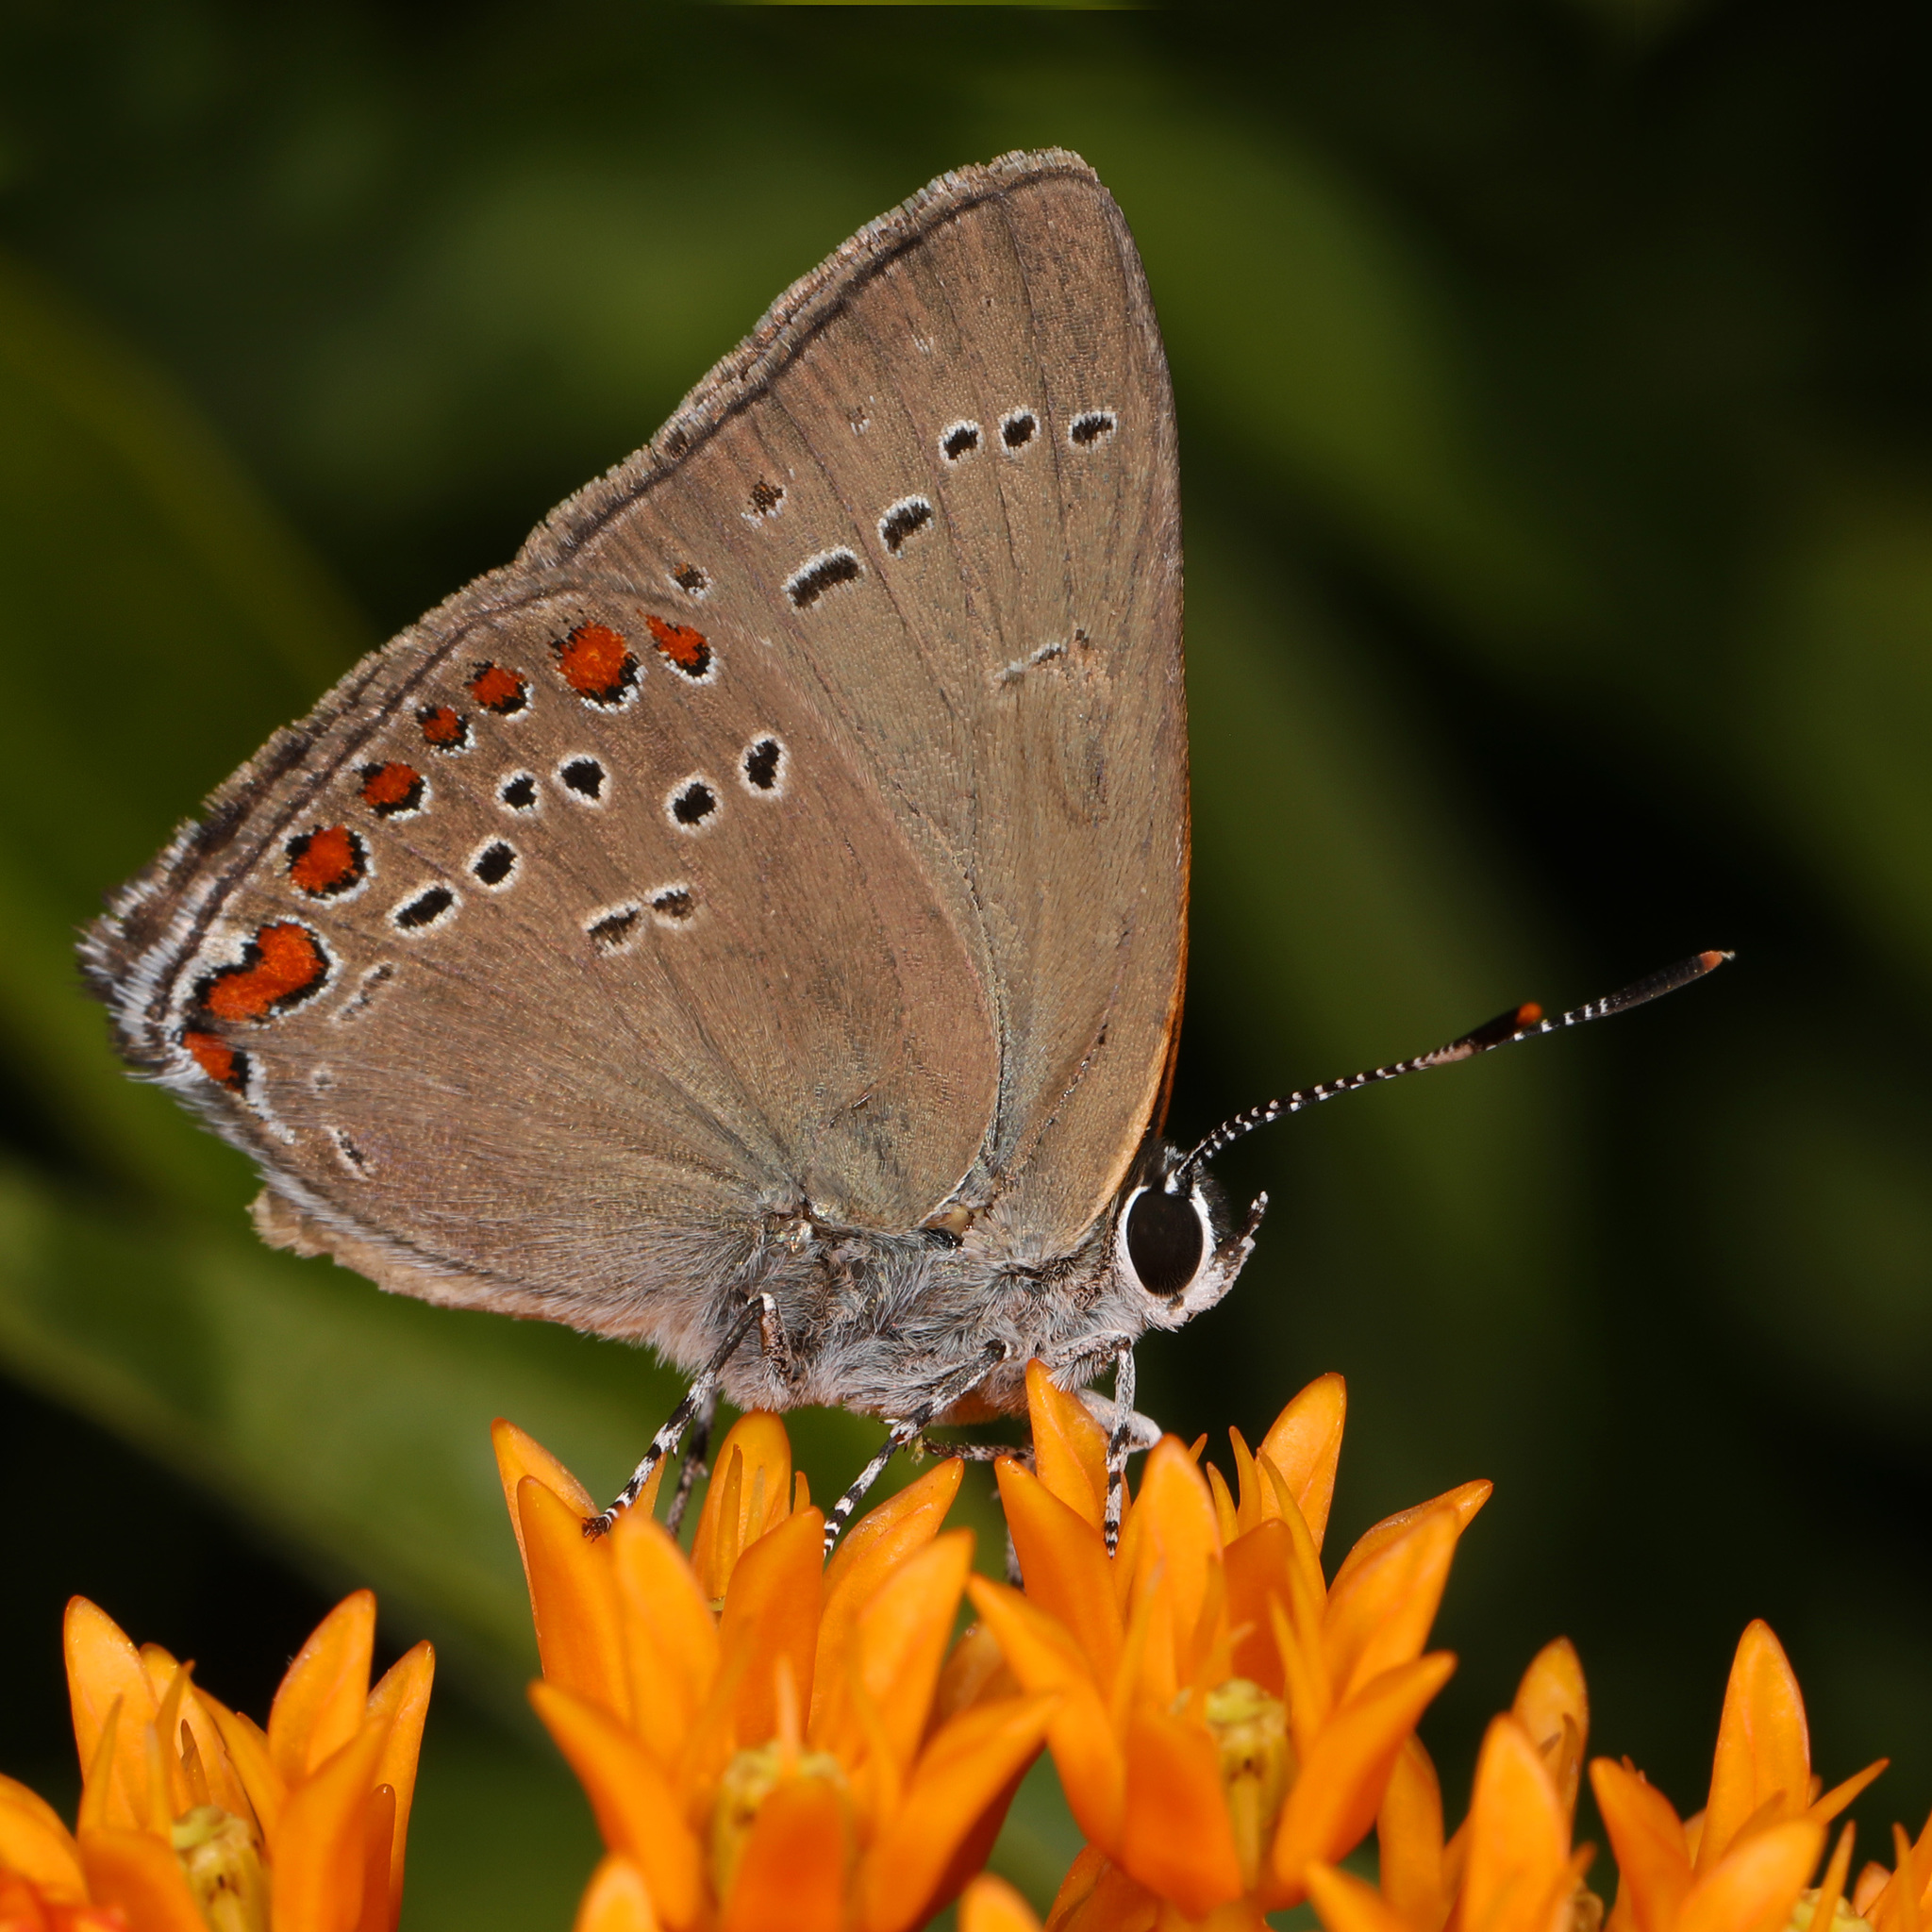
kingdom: Animalia
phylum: Arthropoda
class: Insecta
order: Lepidoptera
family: Lycaenidae
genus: Harkenclenus
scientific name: Harkenclenus titus
